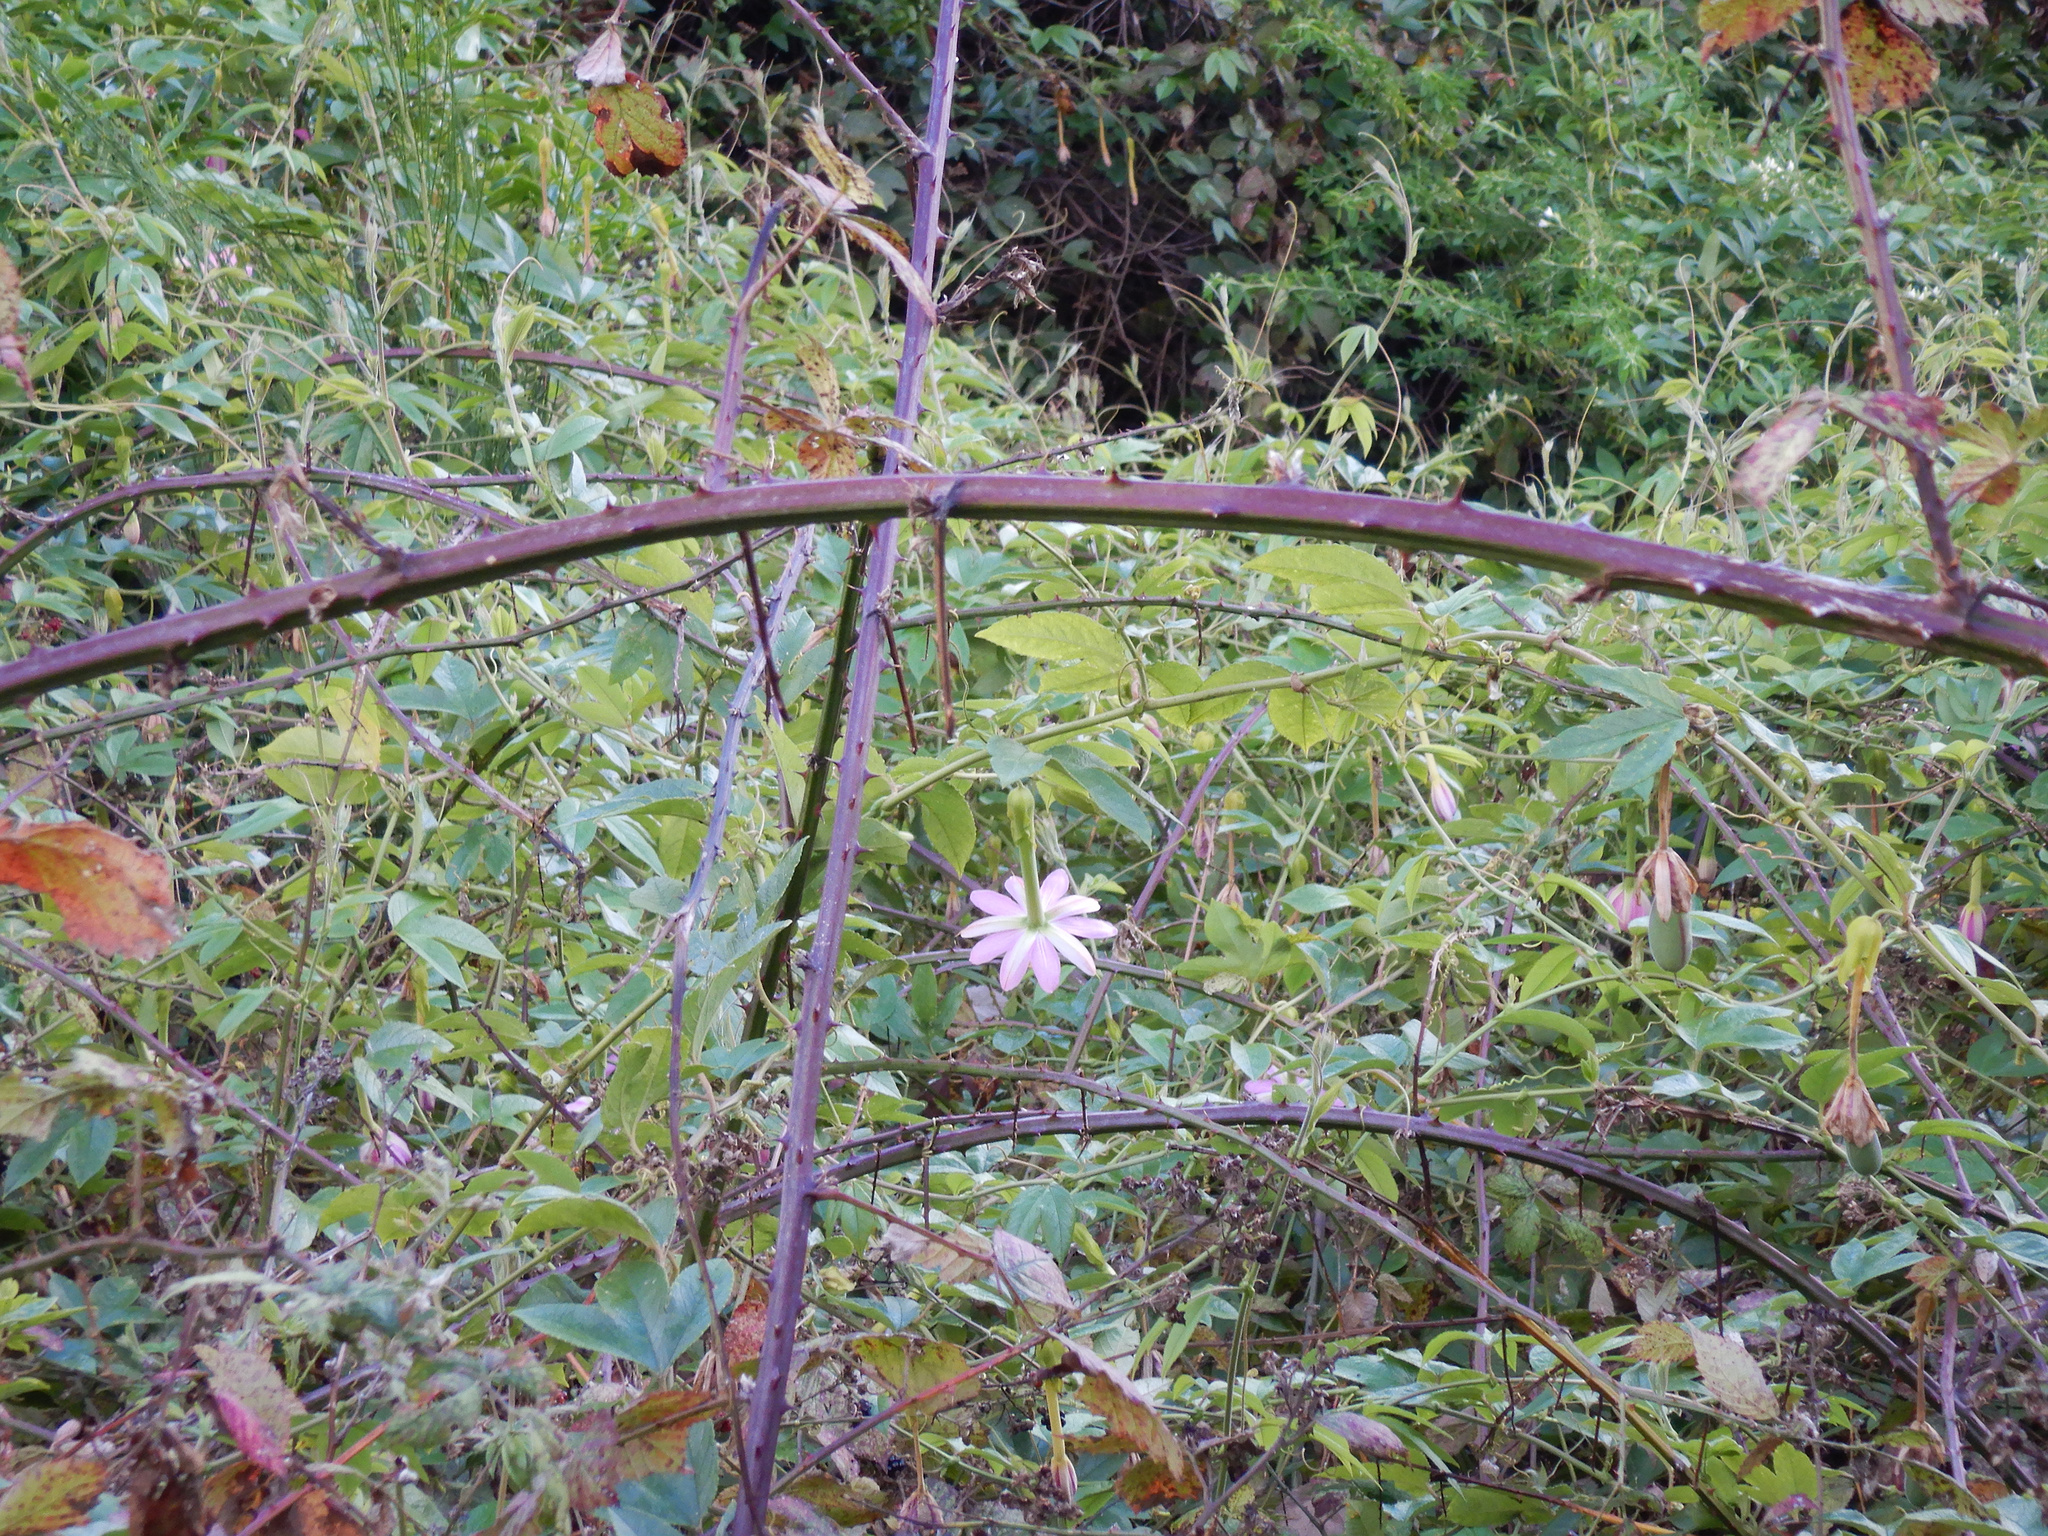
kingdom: Plantae
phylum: Tracheophyta
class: Magnoliopsida
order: Malpighiales
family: Passifloraceae
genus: Passiflora
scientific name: Passiflora tripartita
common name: Banana poka
